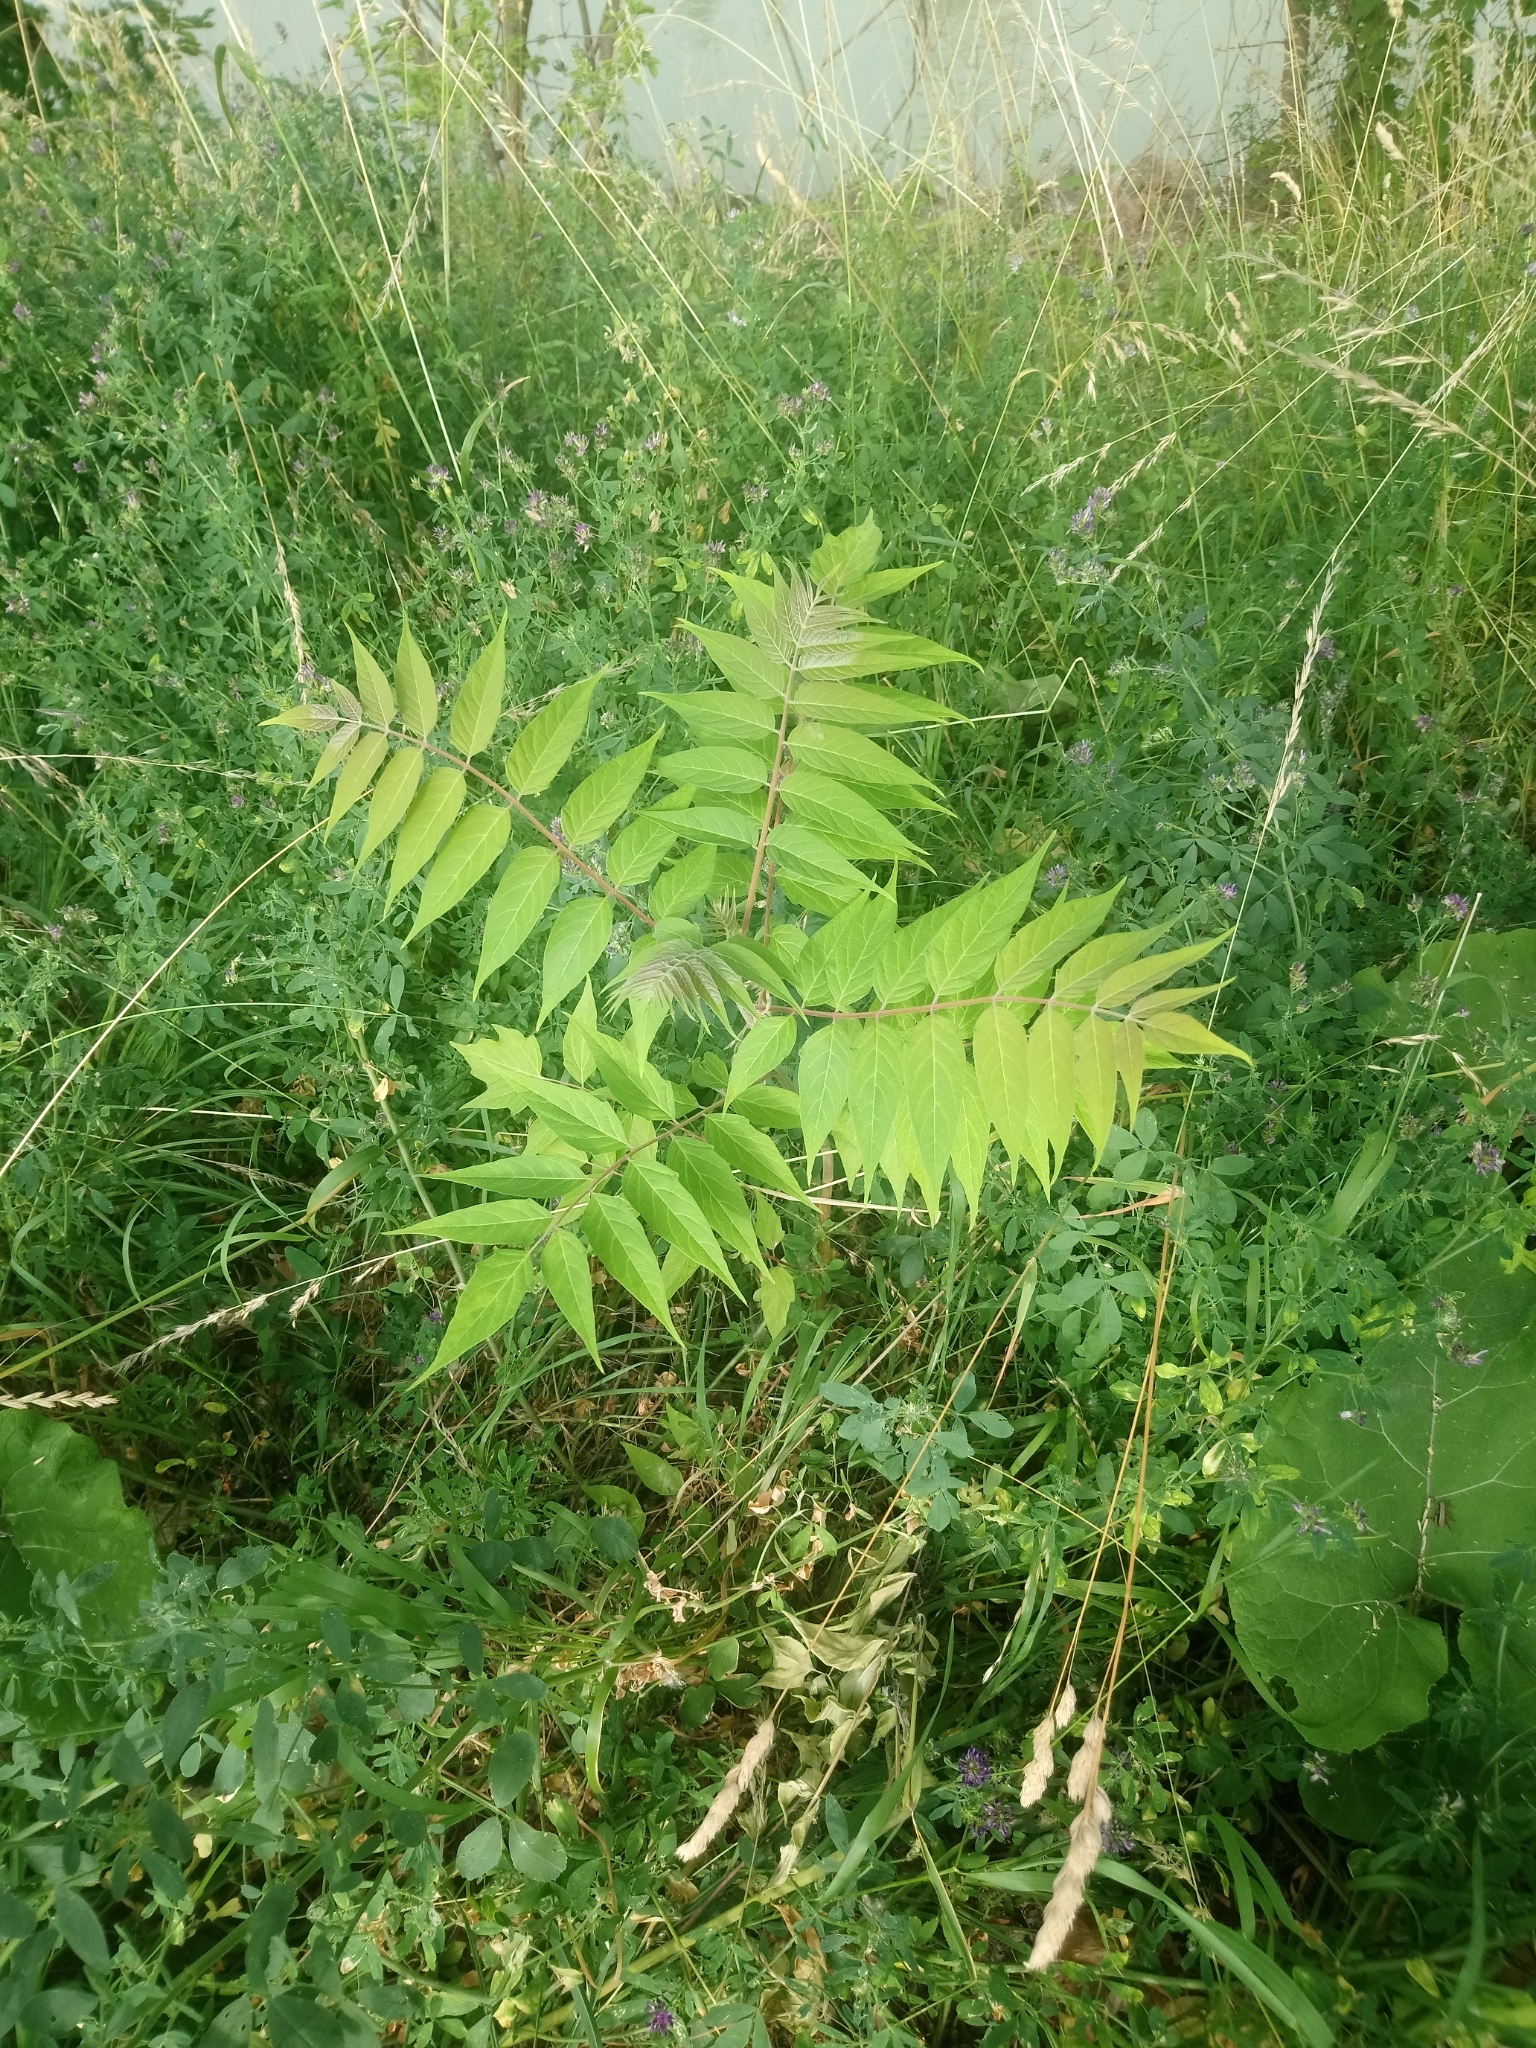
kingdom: Plantae
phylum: Tracheophyta
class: Magnoliopsida
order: Sapindales
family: Simaroubaceae
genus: Ailanthus
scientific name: Ailanthus altissima
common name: Tree-of-heaven
